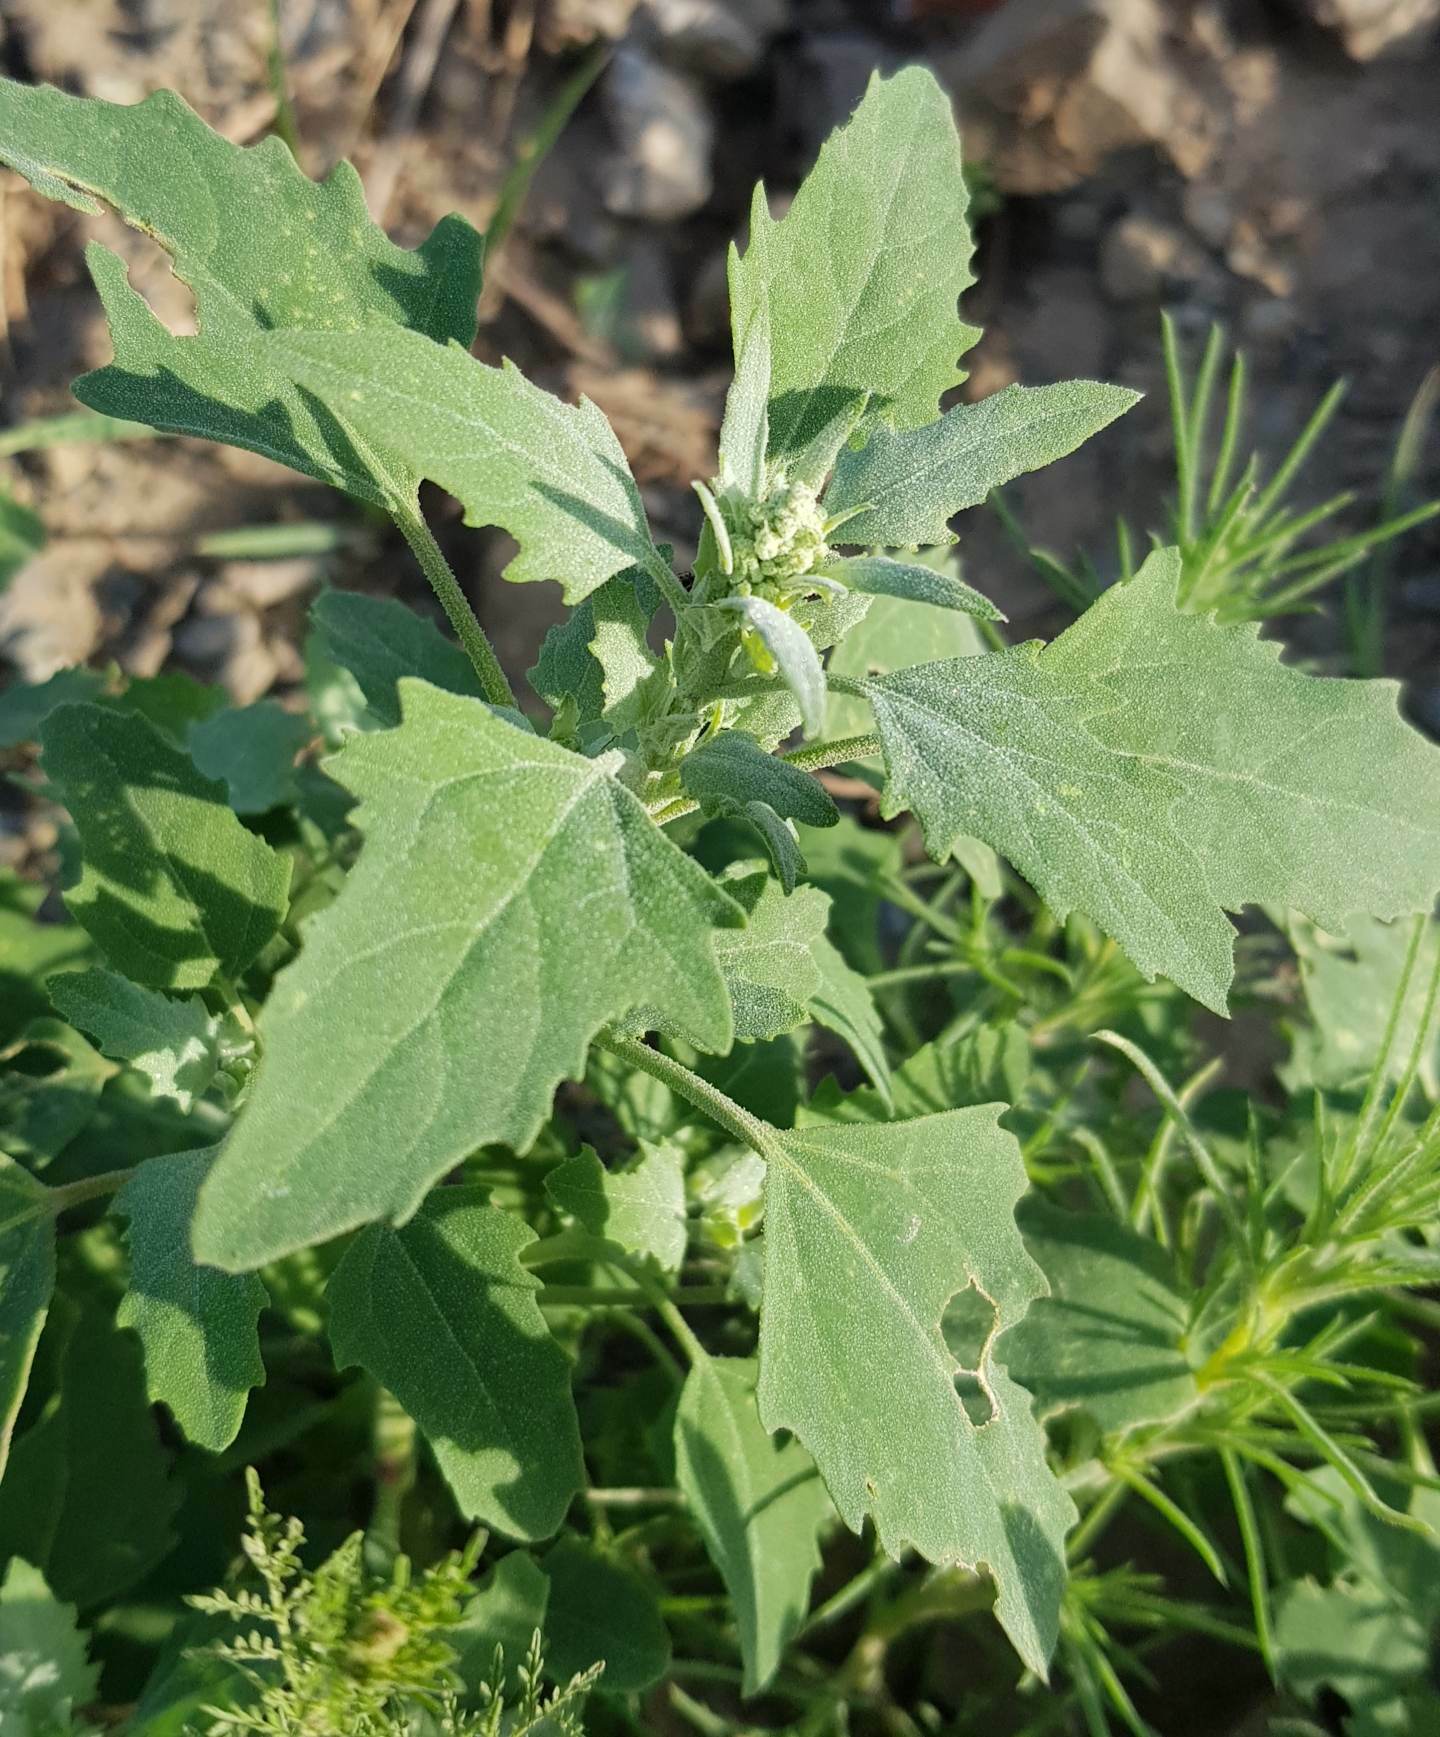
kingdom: Plantae
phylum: Tracheophyta
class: Magnoliopsida
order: Caryophyllales
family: Amaranthaceae
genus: Chenopodium
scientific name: Chenopodium album
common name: Fat-hen
